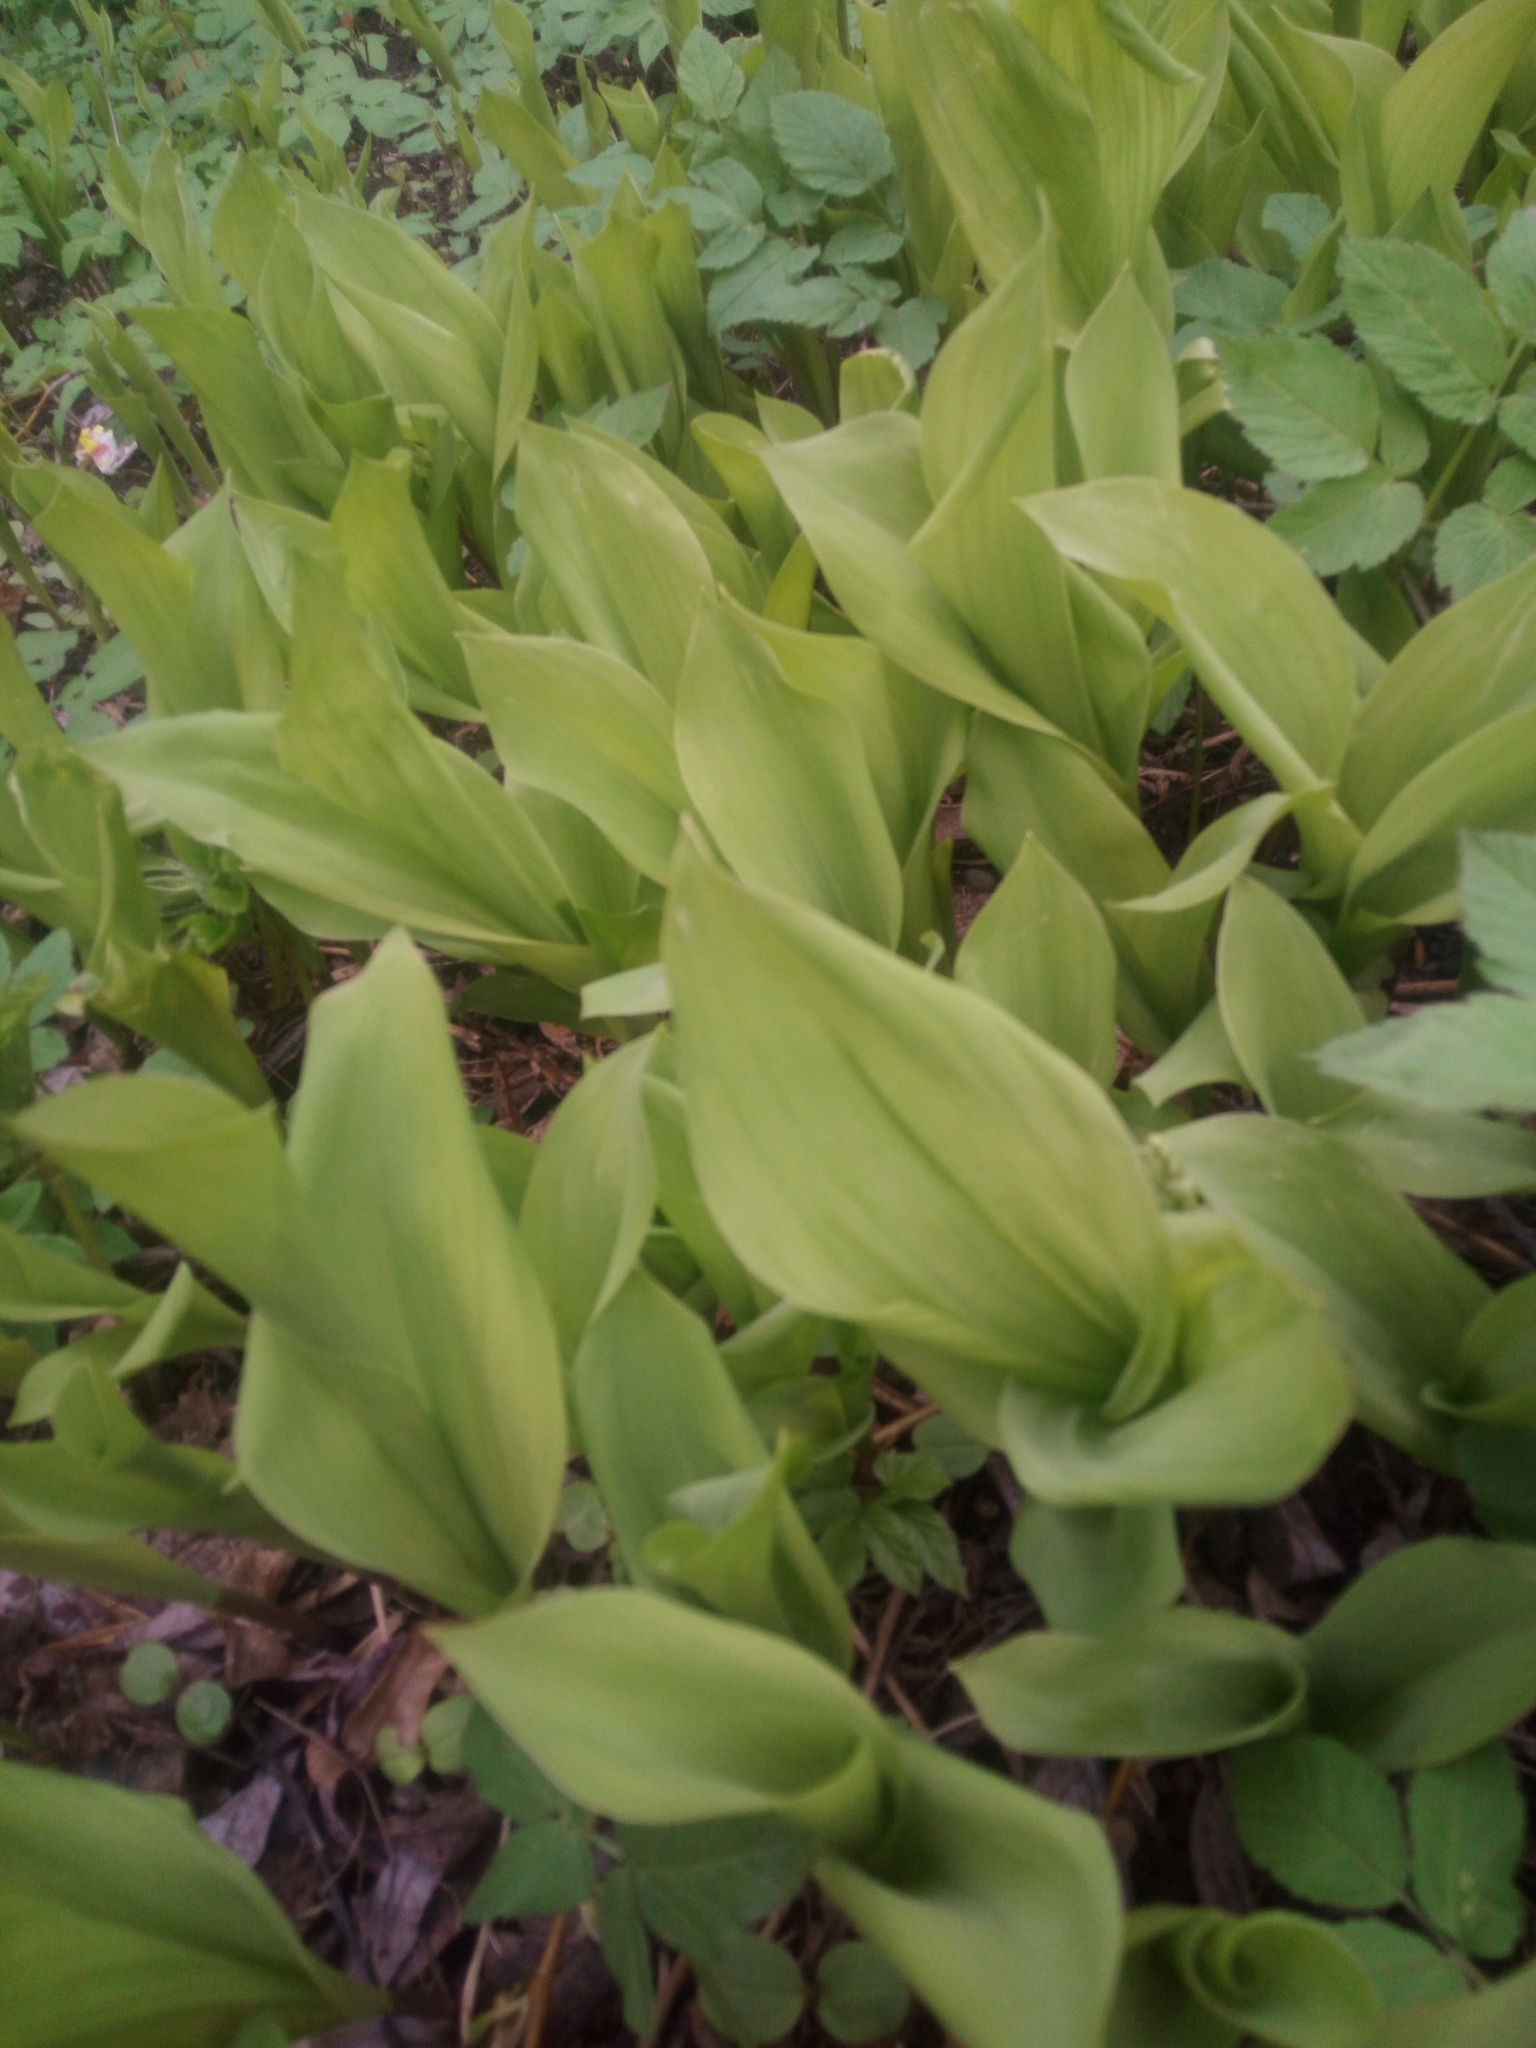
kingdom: Plantae
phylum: Tracheophyta
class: Liliopsida
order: Asparagales
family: Asparagaceae
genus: Convallaria
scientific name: Convallaria majalis
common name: Lily-of-the-valley
